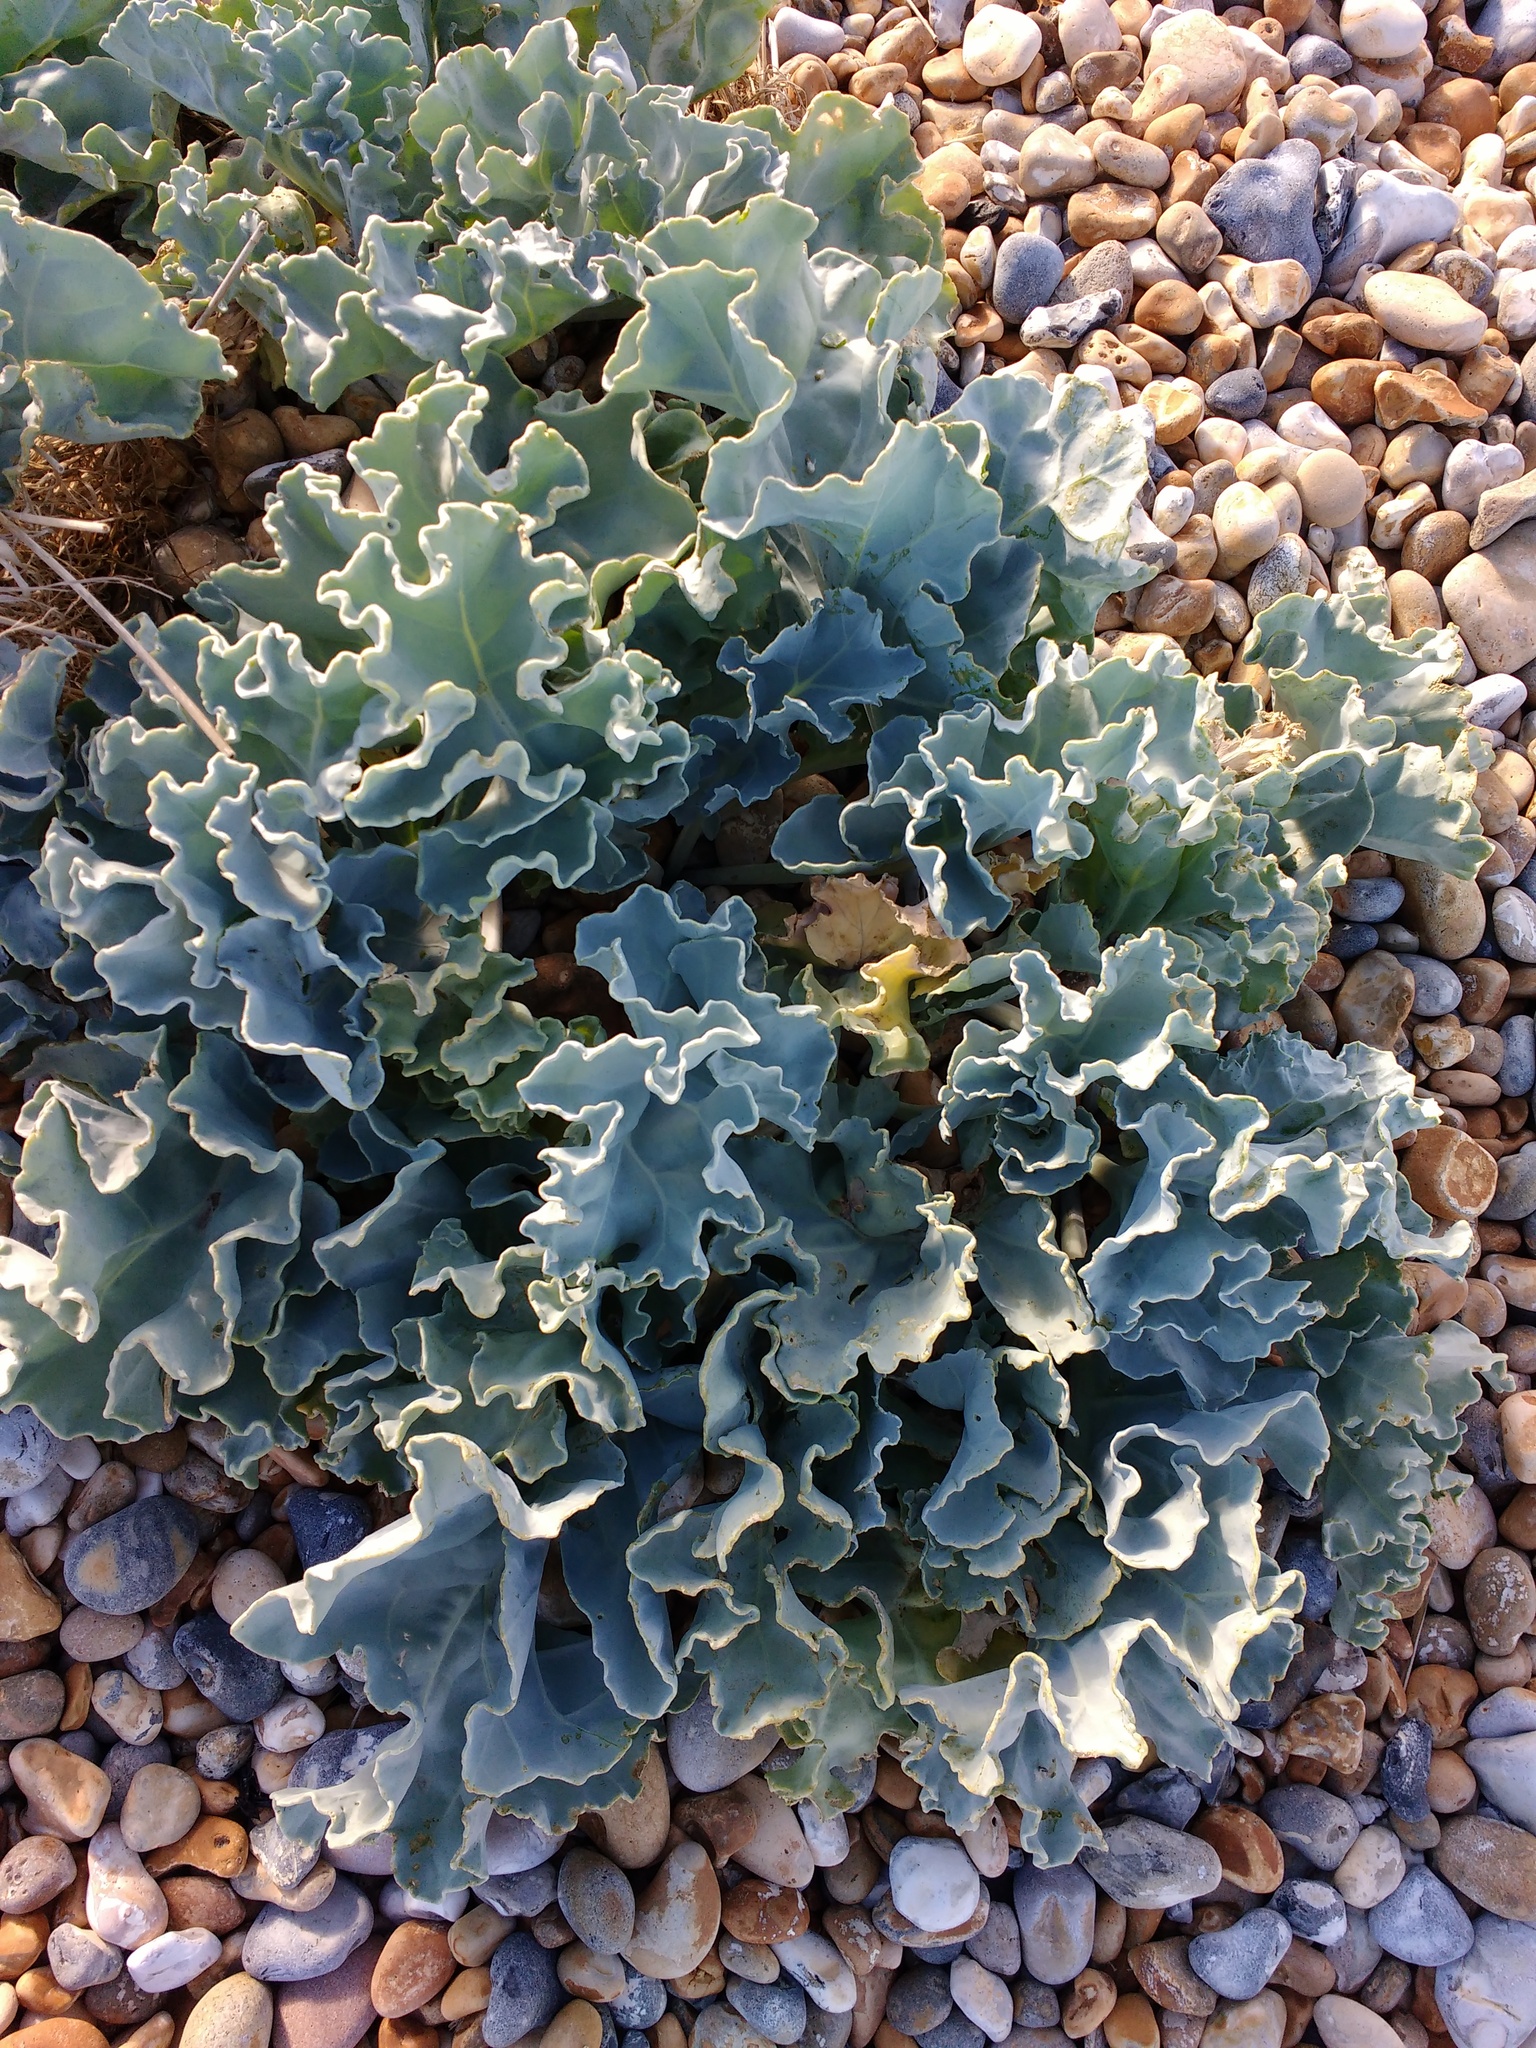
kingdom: Plantae
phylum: Tracheophyta
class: Magnoliopsida
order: Brassicales
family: Brassicaceae
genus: Crambe
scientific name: Crambe maritima
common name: Sea-kale
